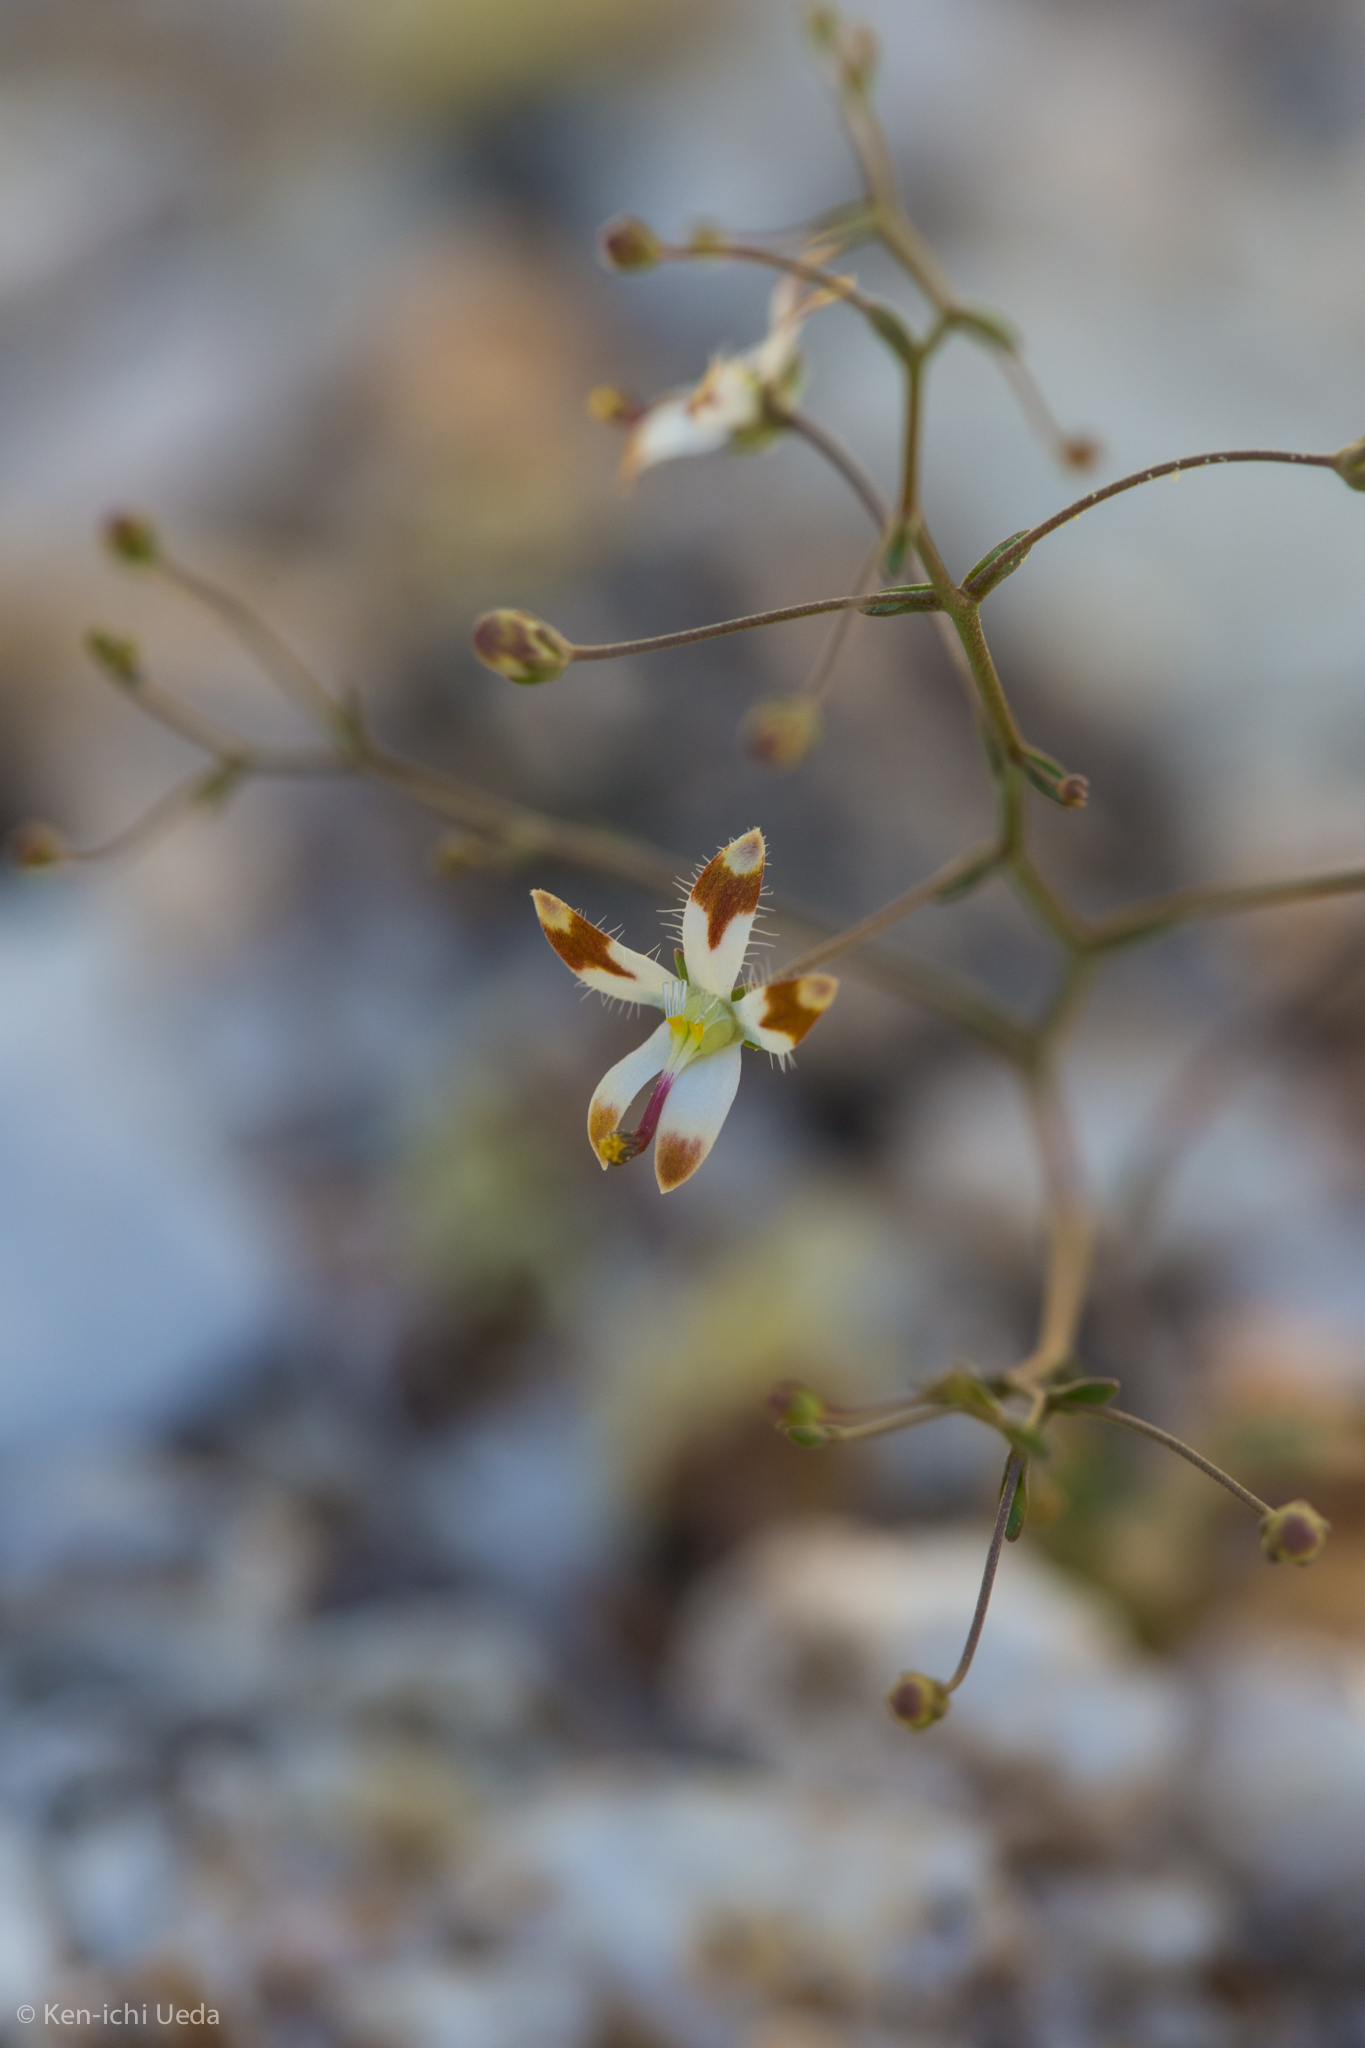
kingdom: Plantae
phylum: Tracheophyta
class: Magnoliopsida
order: Asterales
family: Campanulaceae
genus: Nemacladus
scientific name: Nemacladus rubescens
